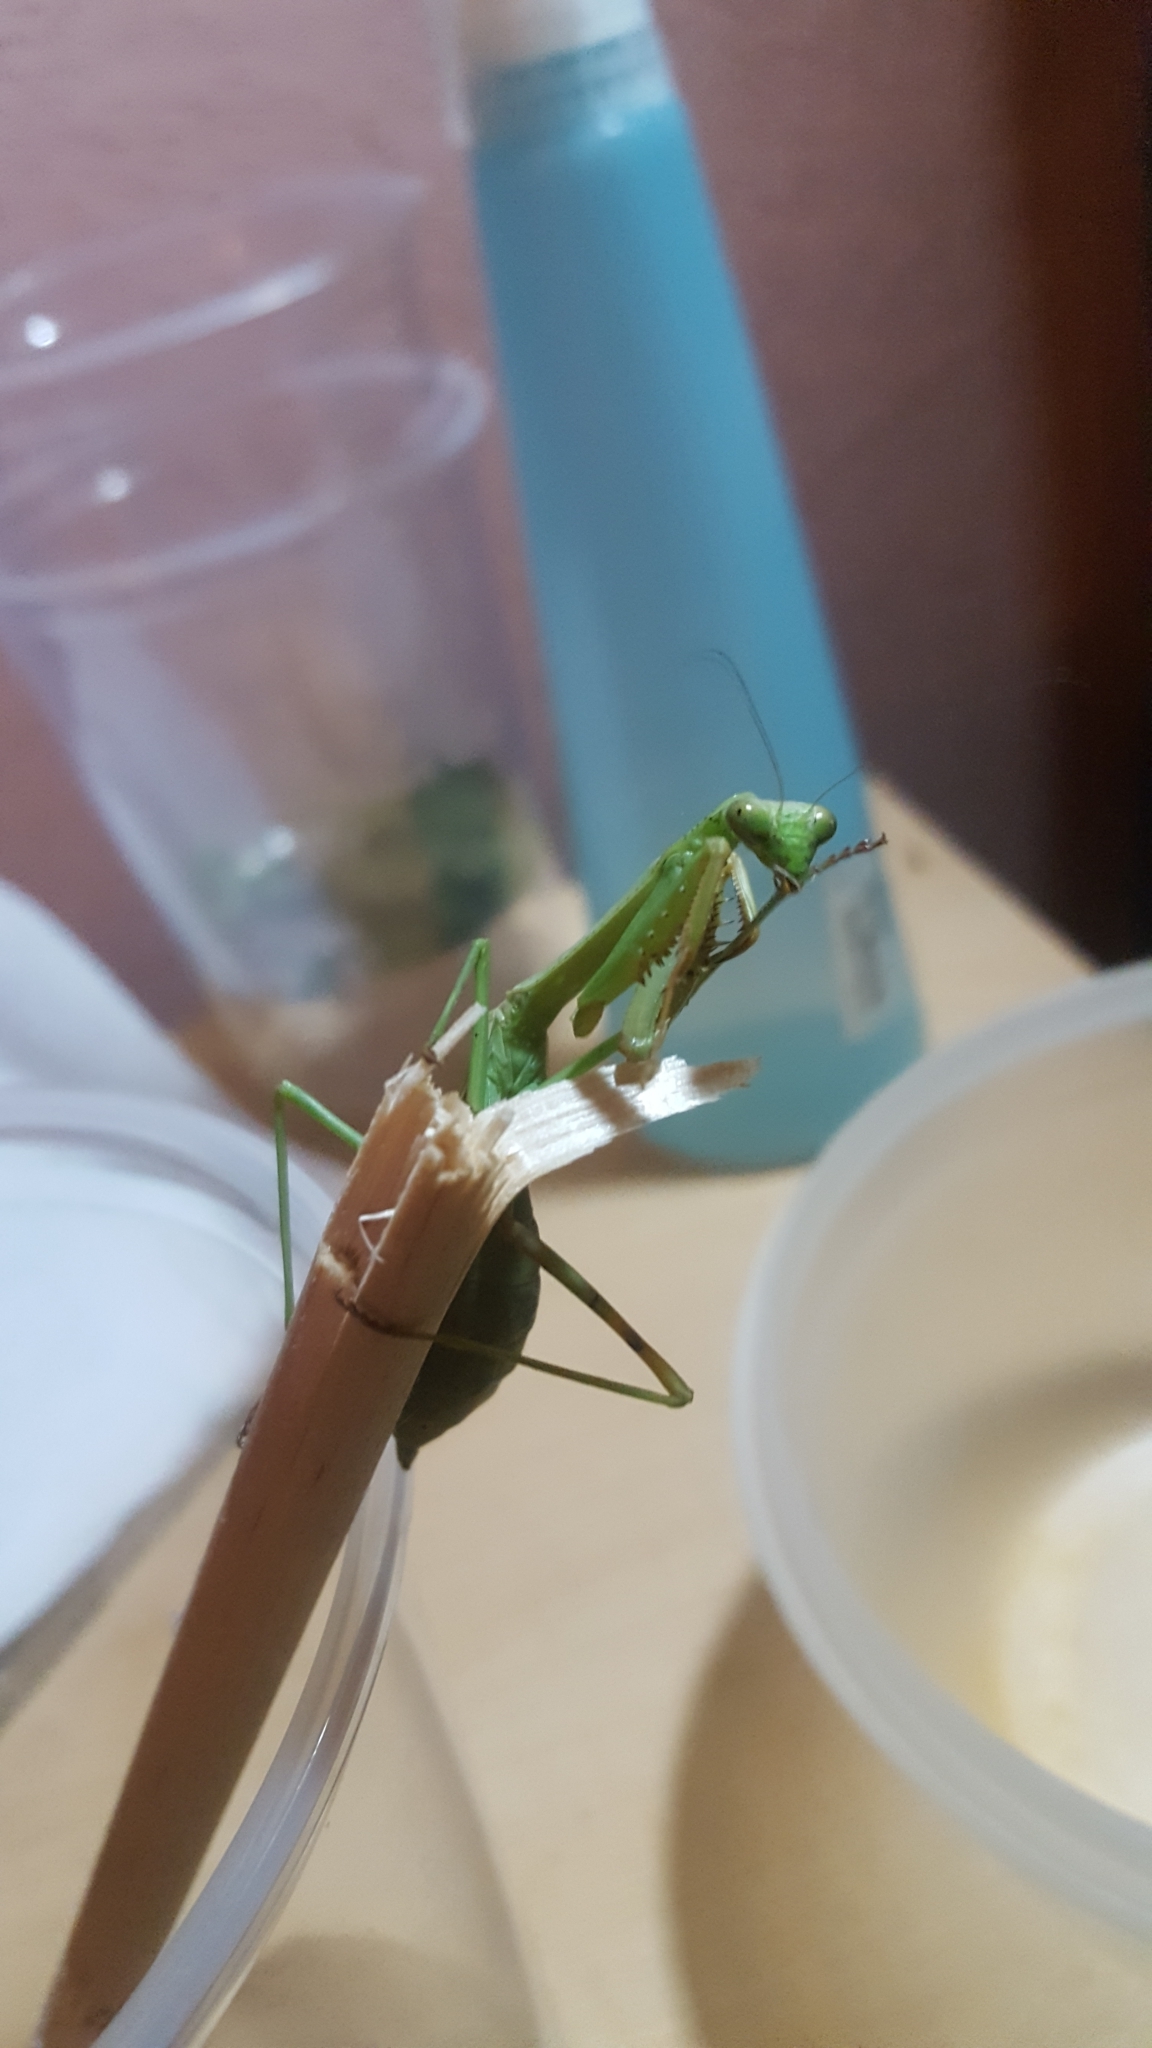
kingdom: Animalia
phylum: Arthropoda
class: Insecta
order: Mantodea
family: Mantidae
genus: Stagmomantis
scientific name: Stagmomantis carolina
